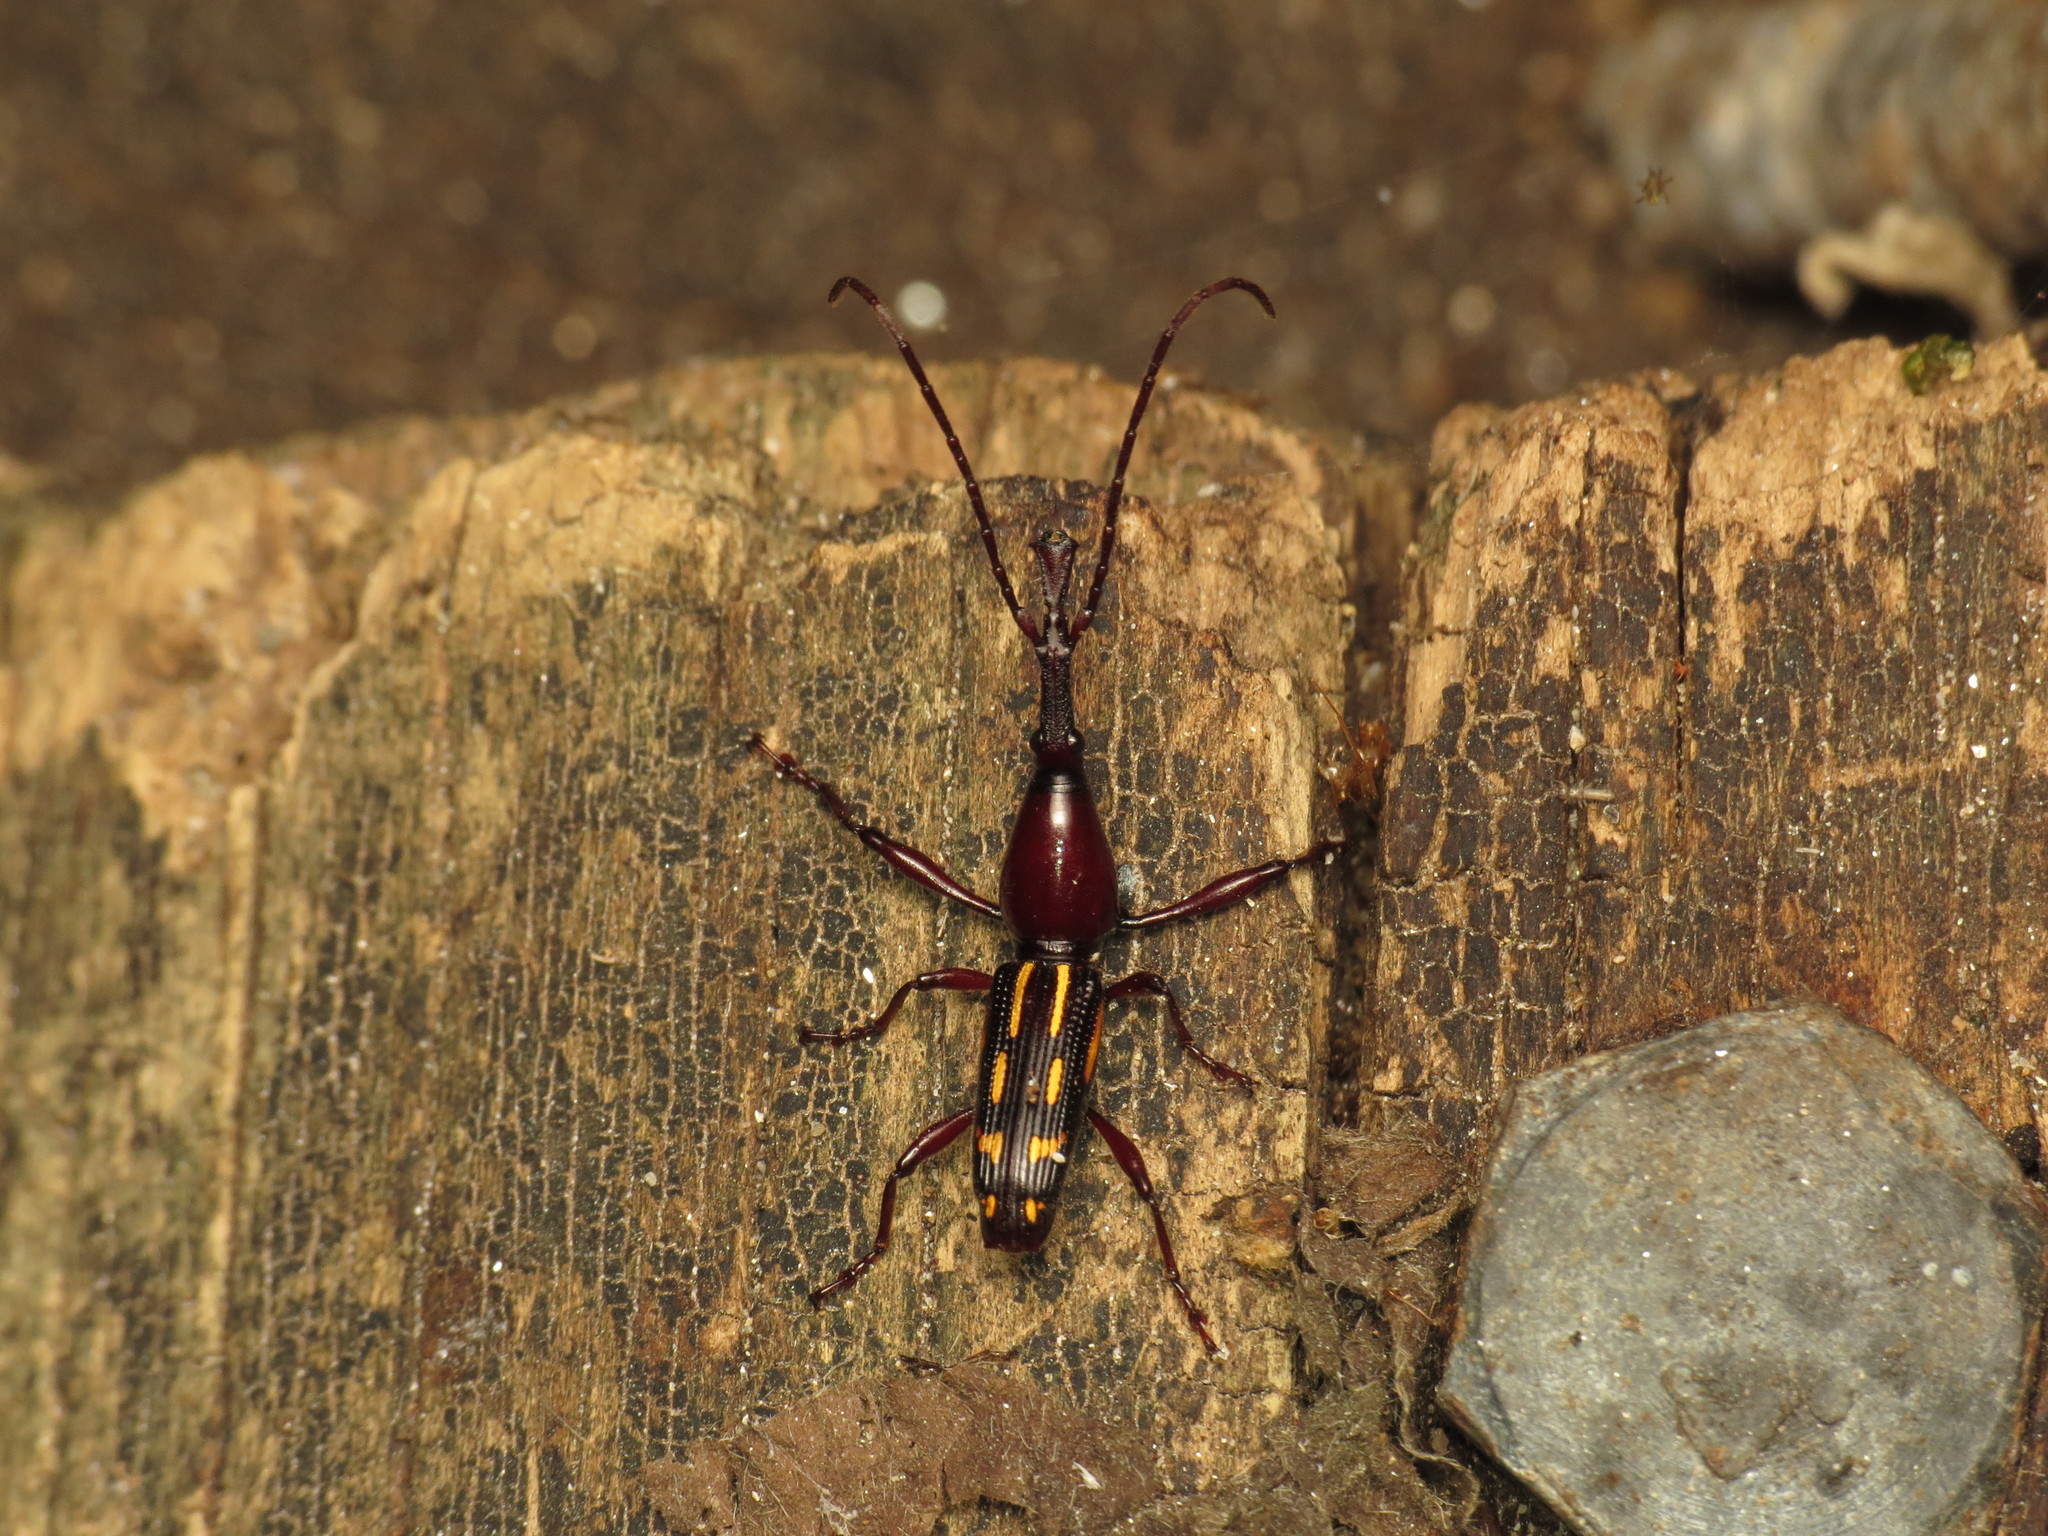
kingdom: Animalia
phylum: Arthropoda
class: Insecta
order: Coleoptera
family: Brentidae
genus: Ectocemus
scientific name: Ectocemus decemmaculatus
